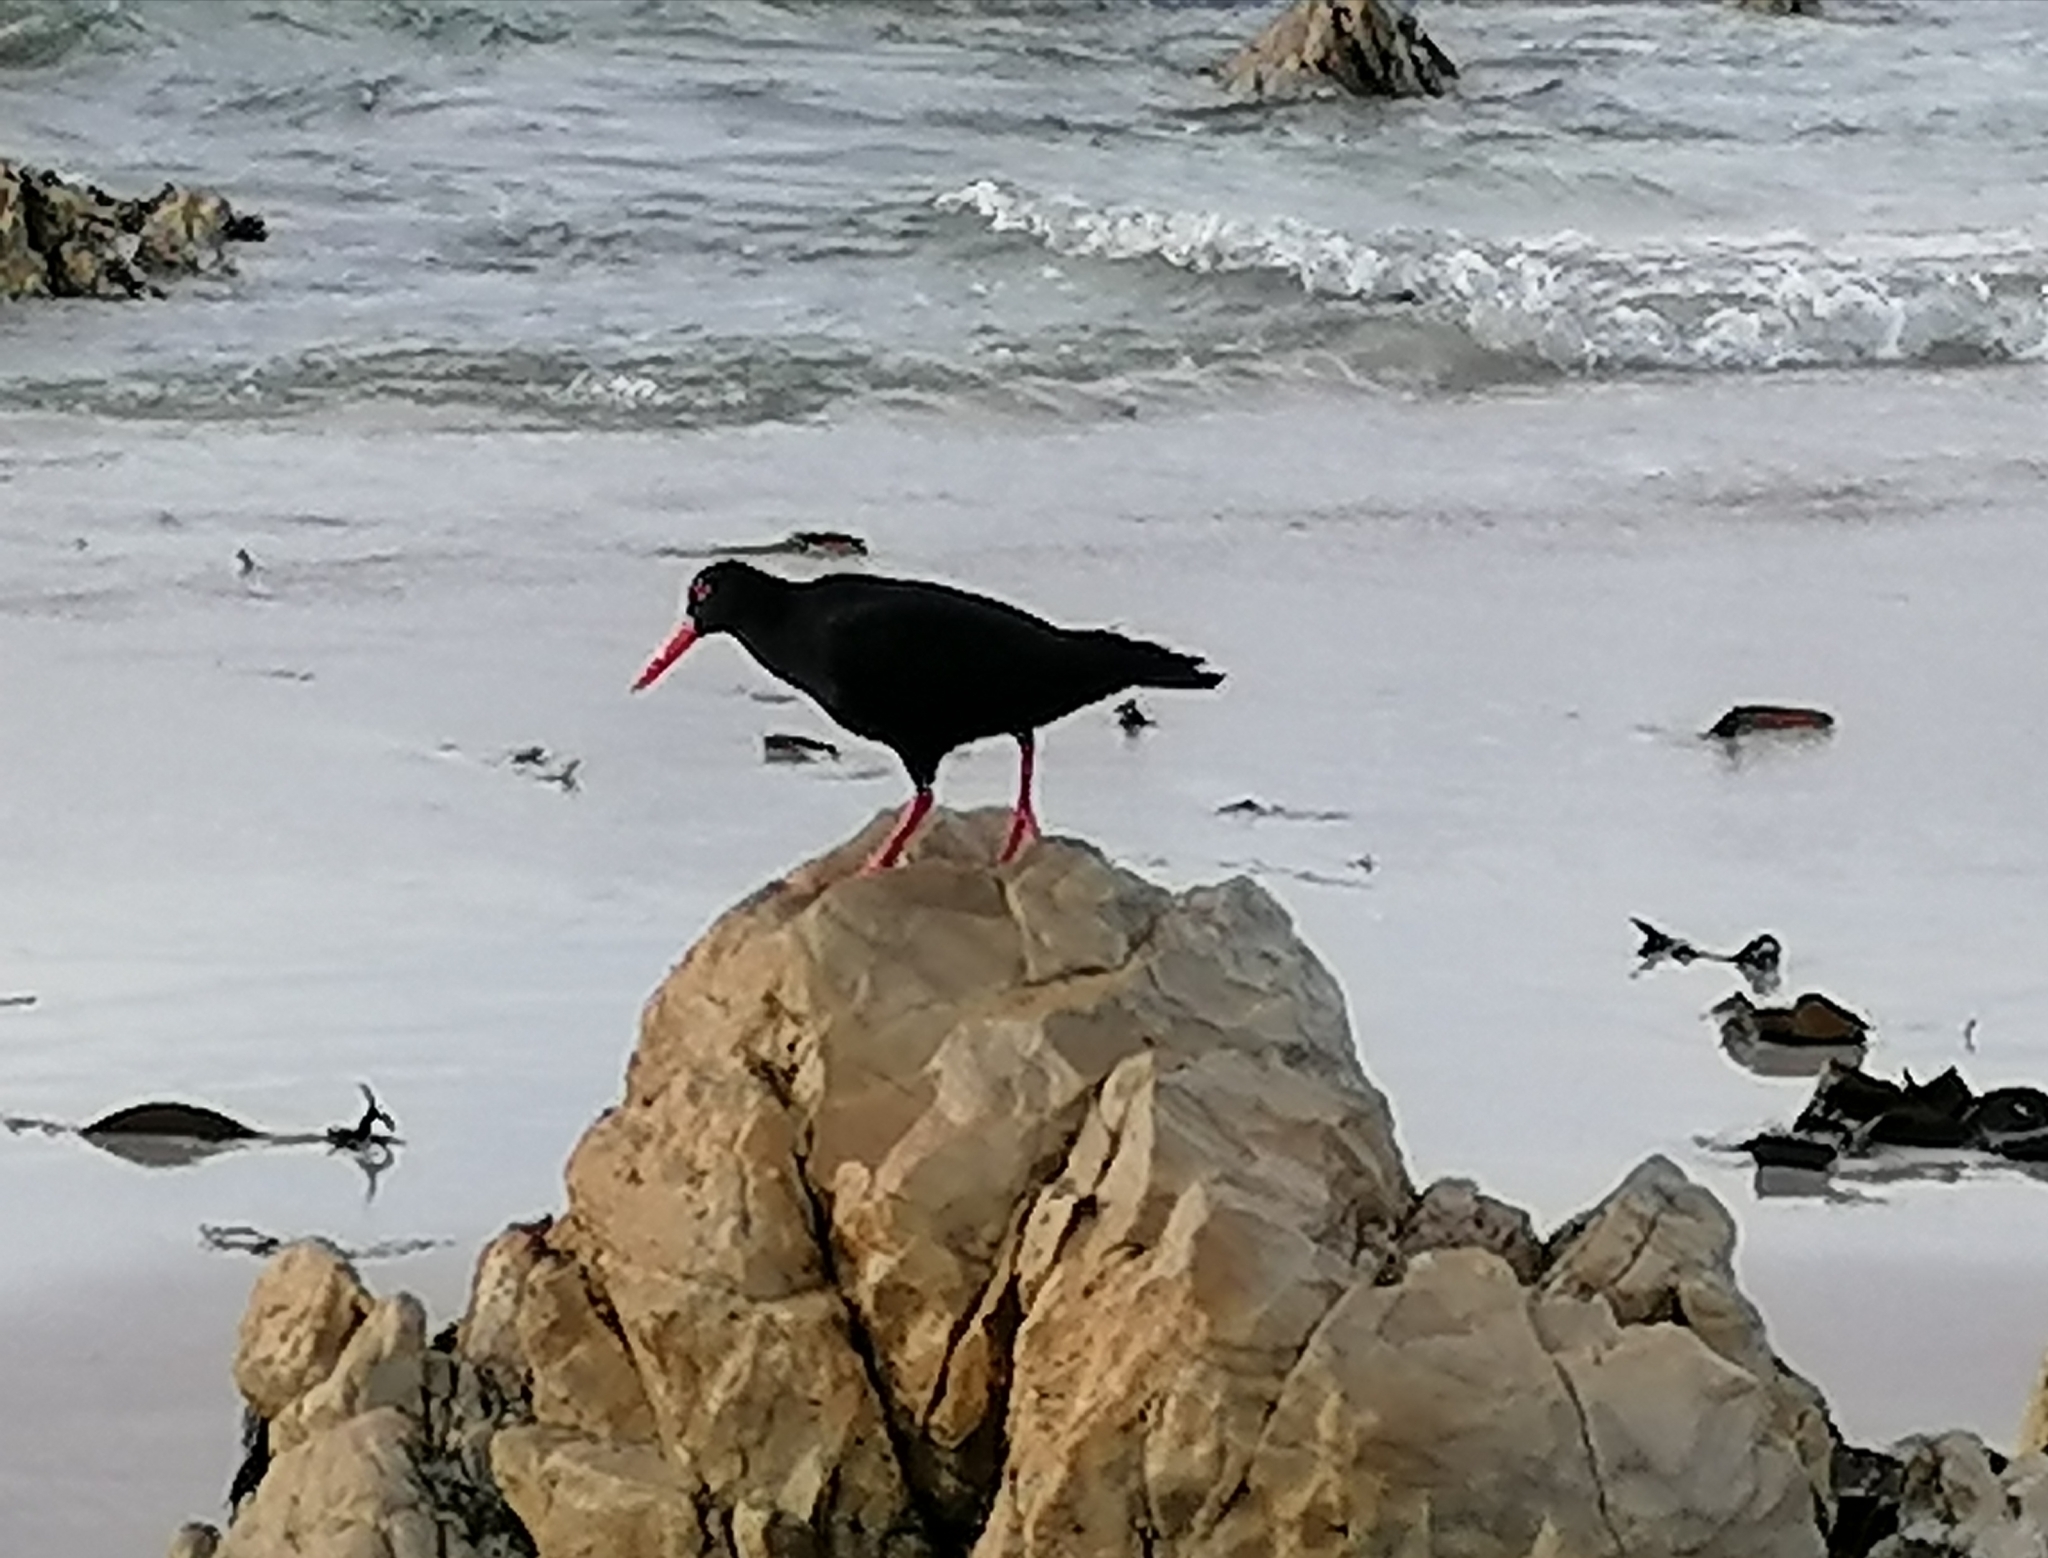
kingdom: Animalia
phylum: Chordata
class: Aves
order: Charadriiformes
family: Haematopodidae
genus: Haematopus
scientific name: Haematopus moquini
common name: African oystercatcher
